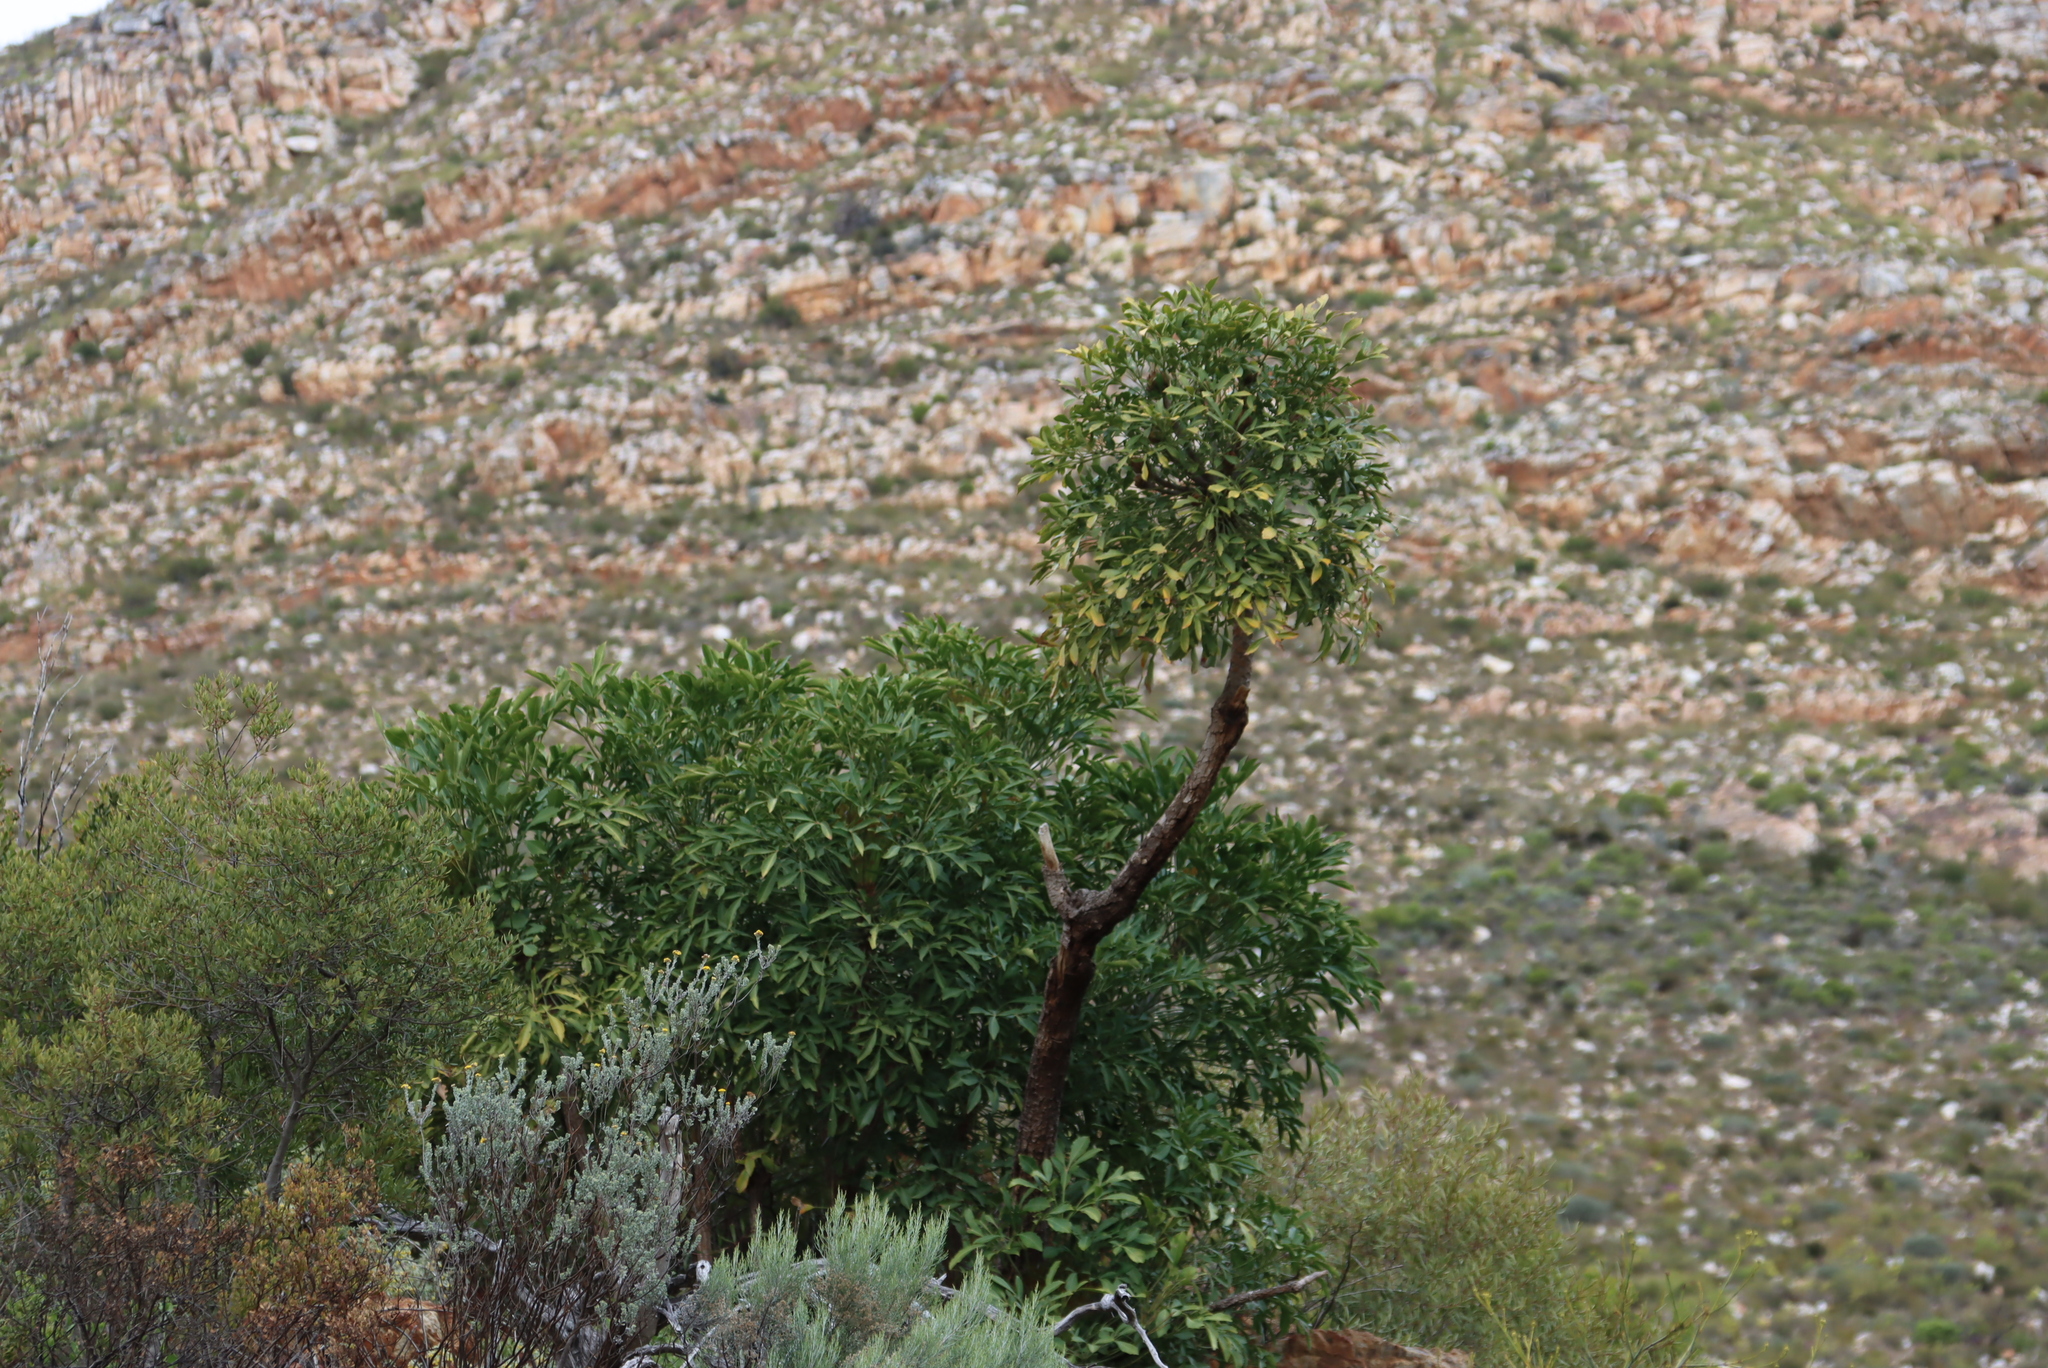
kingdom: Plantae
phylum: Tracheophyta
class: Magnoliopsida
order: Apiales
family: Araliaceae
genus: Cussonia
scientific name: Cussonia spicata
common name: Common cabbagetree
